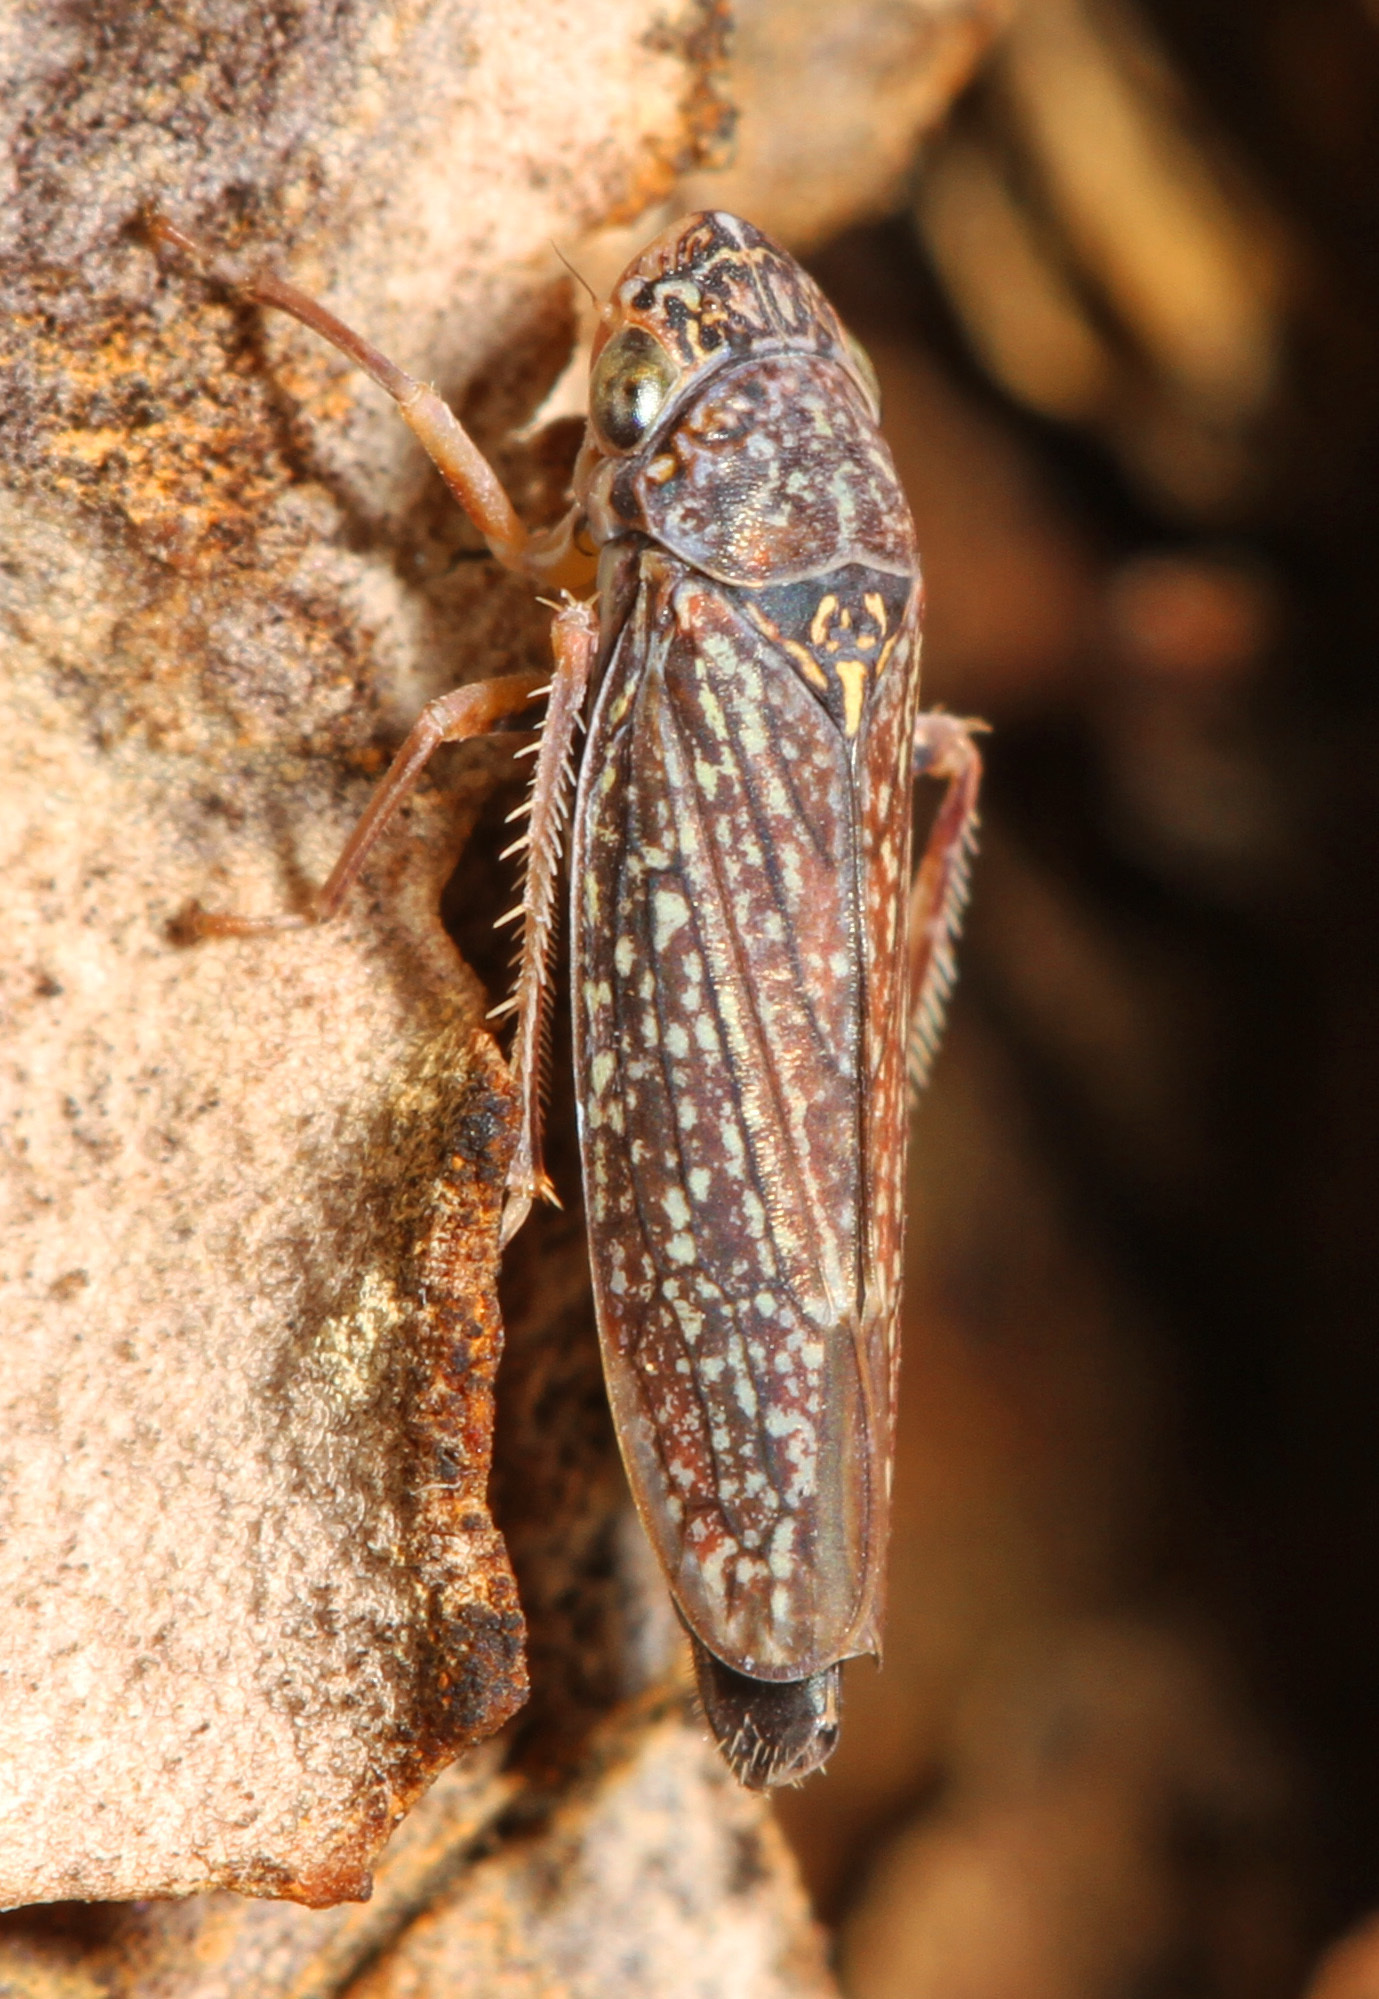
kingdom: Animalia
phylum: Arthropoda
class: Insecta
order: Hemiptera
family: Cicadellidae
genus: Graphocephala
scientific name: Graphocephala confluens
